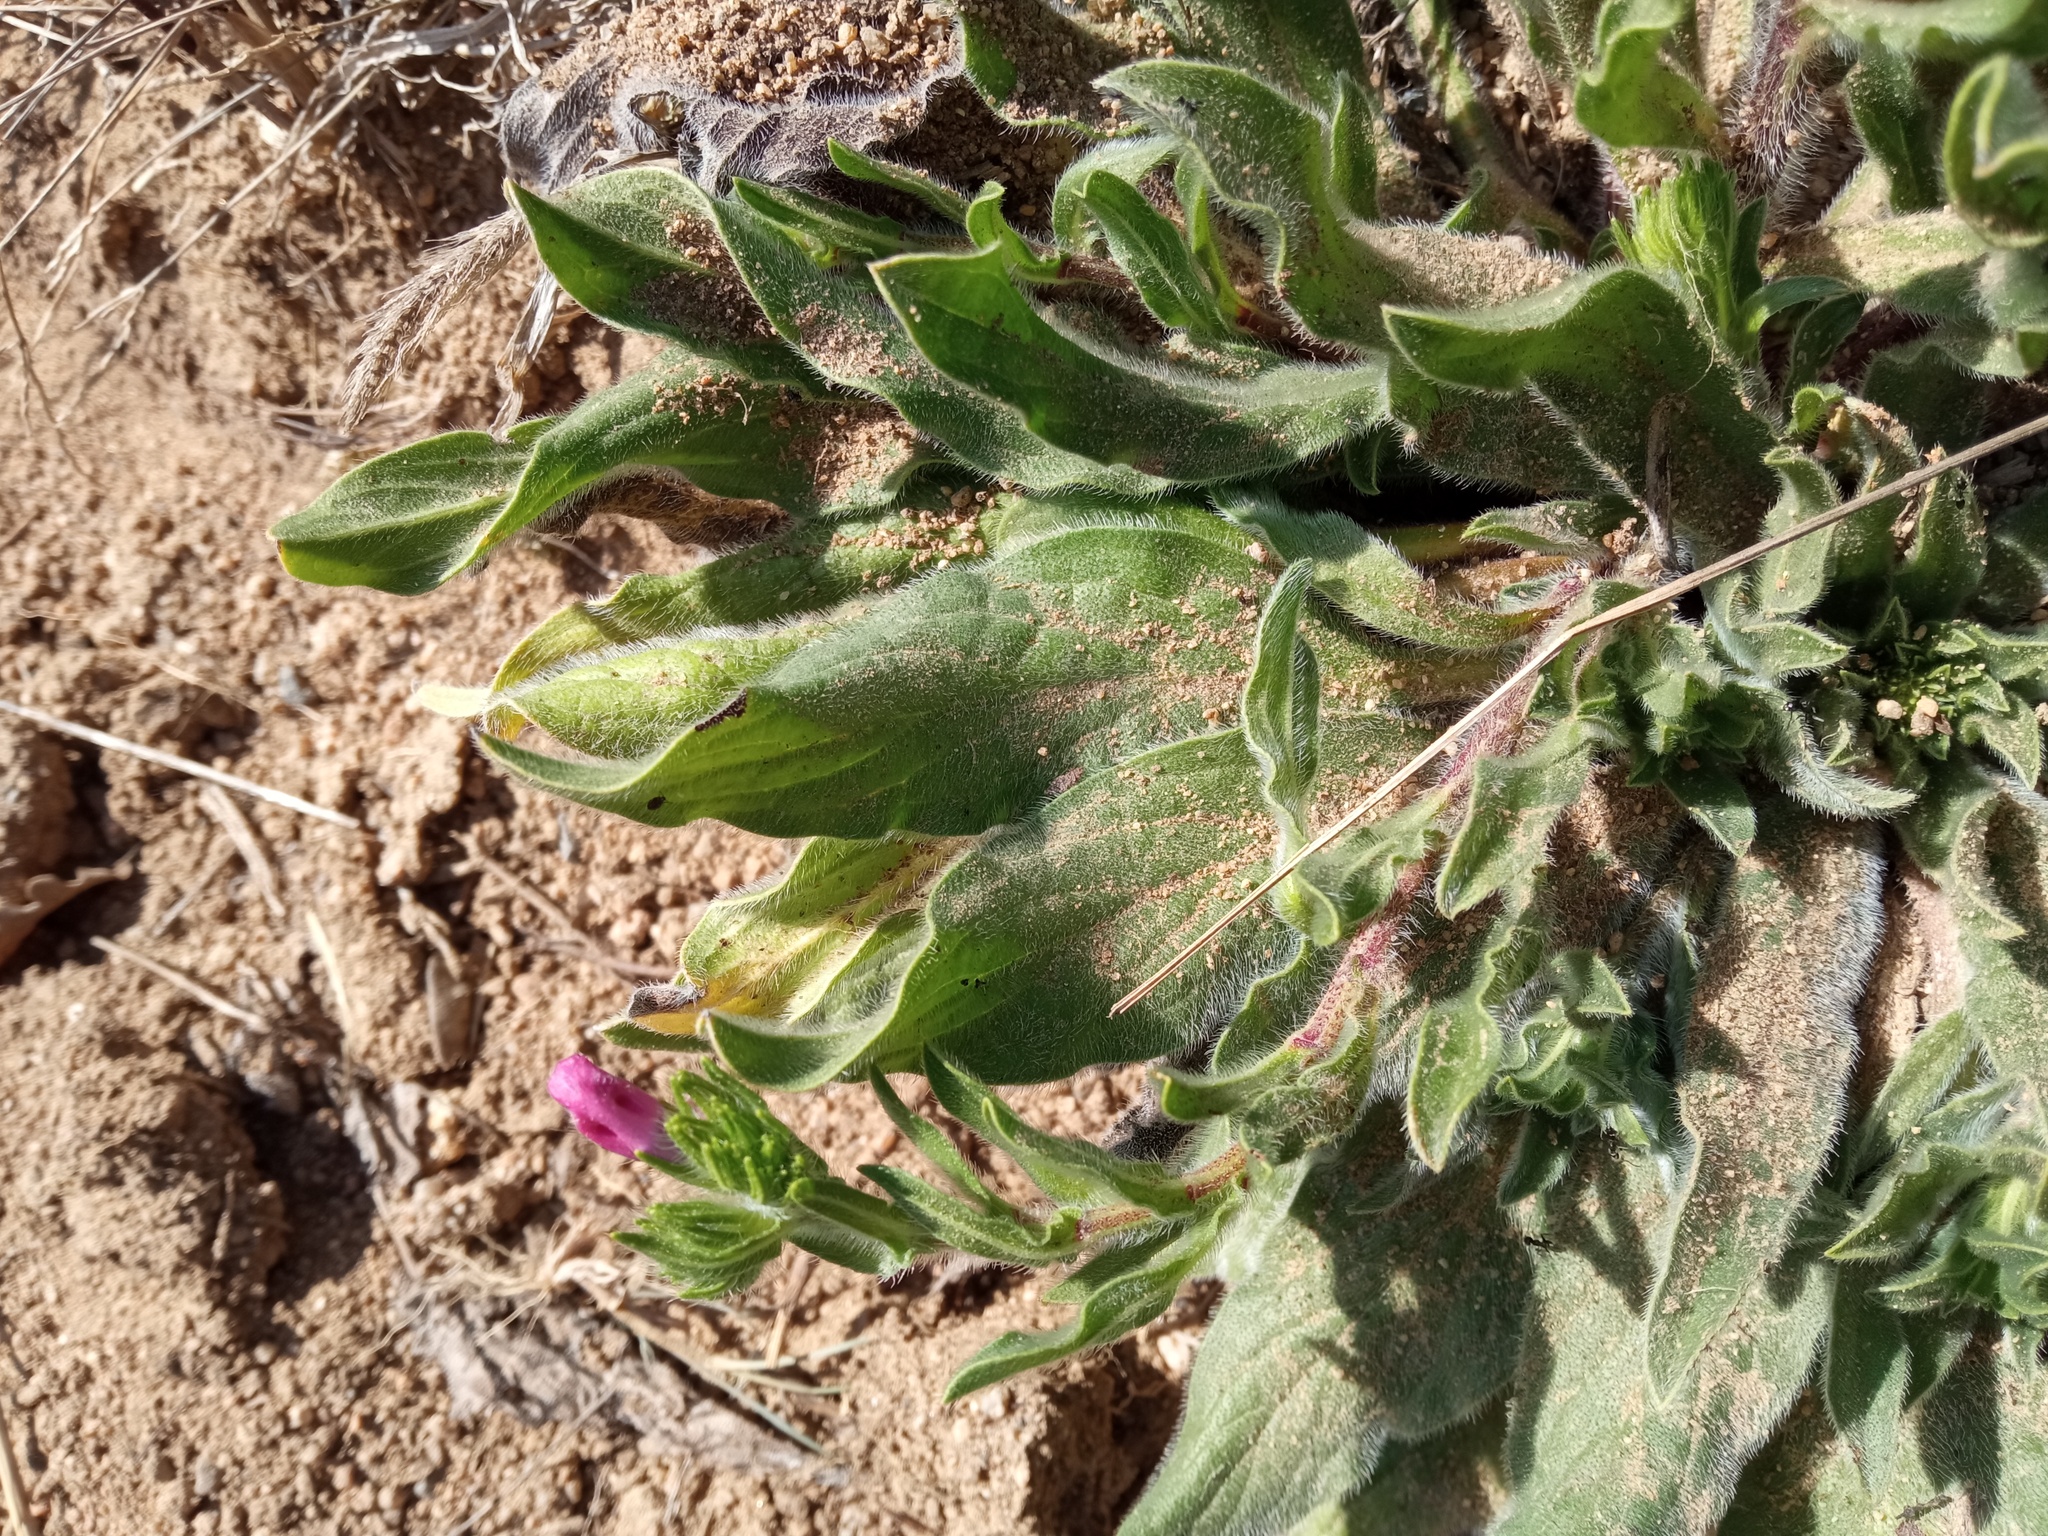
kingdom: Plantae
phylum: Tracheophyta
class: Magnoliopsida
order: Boraginales
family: Boraginaceae
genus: Echium
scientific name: Echium plantagineum
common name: Purple viper's-bugloss
